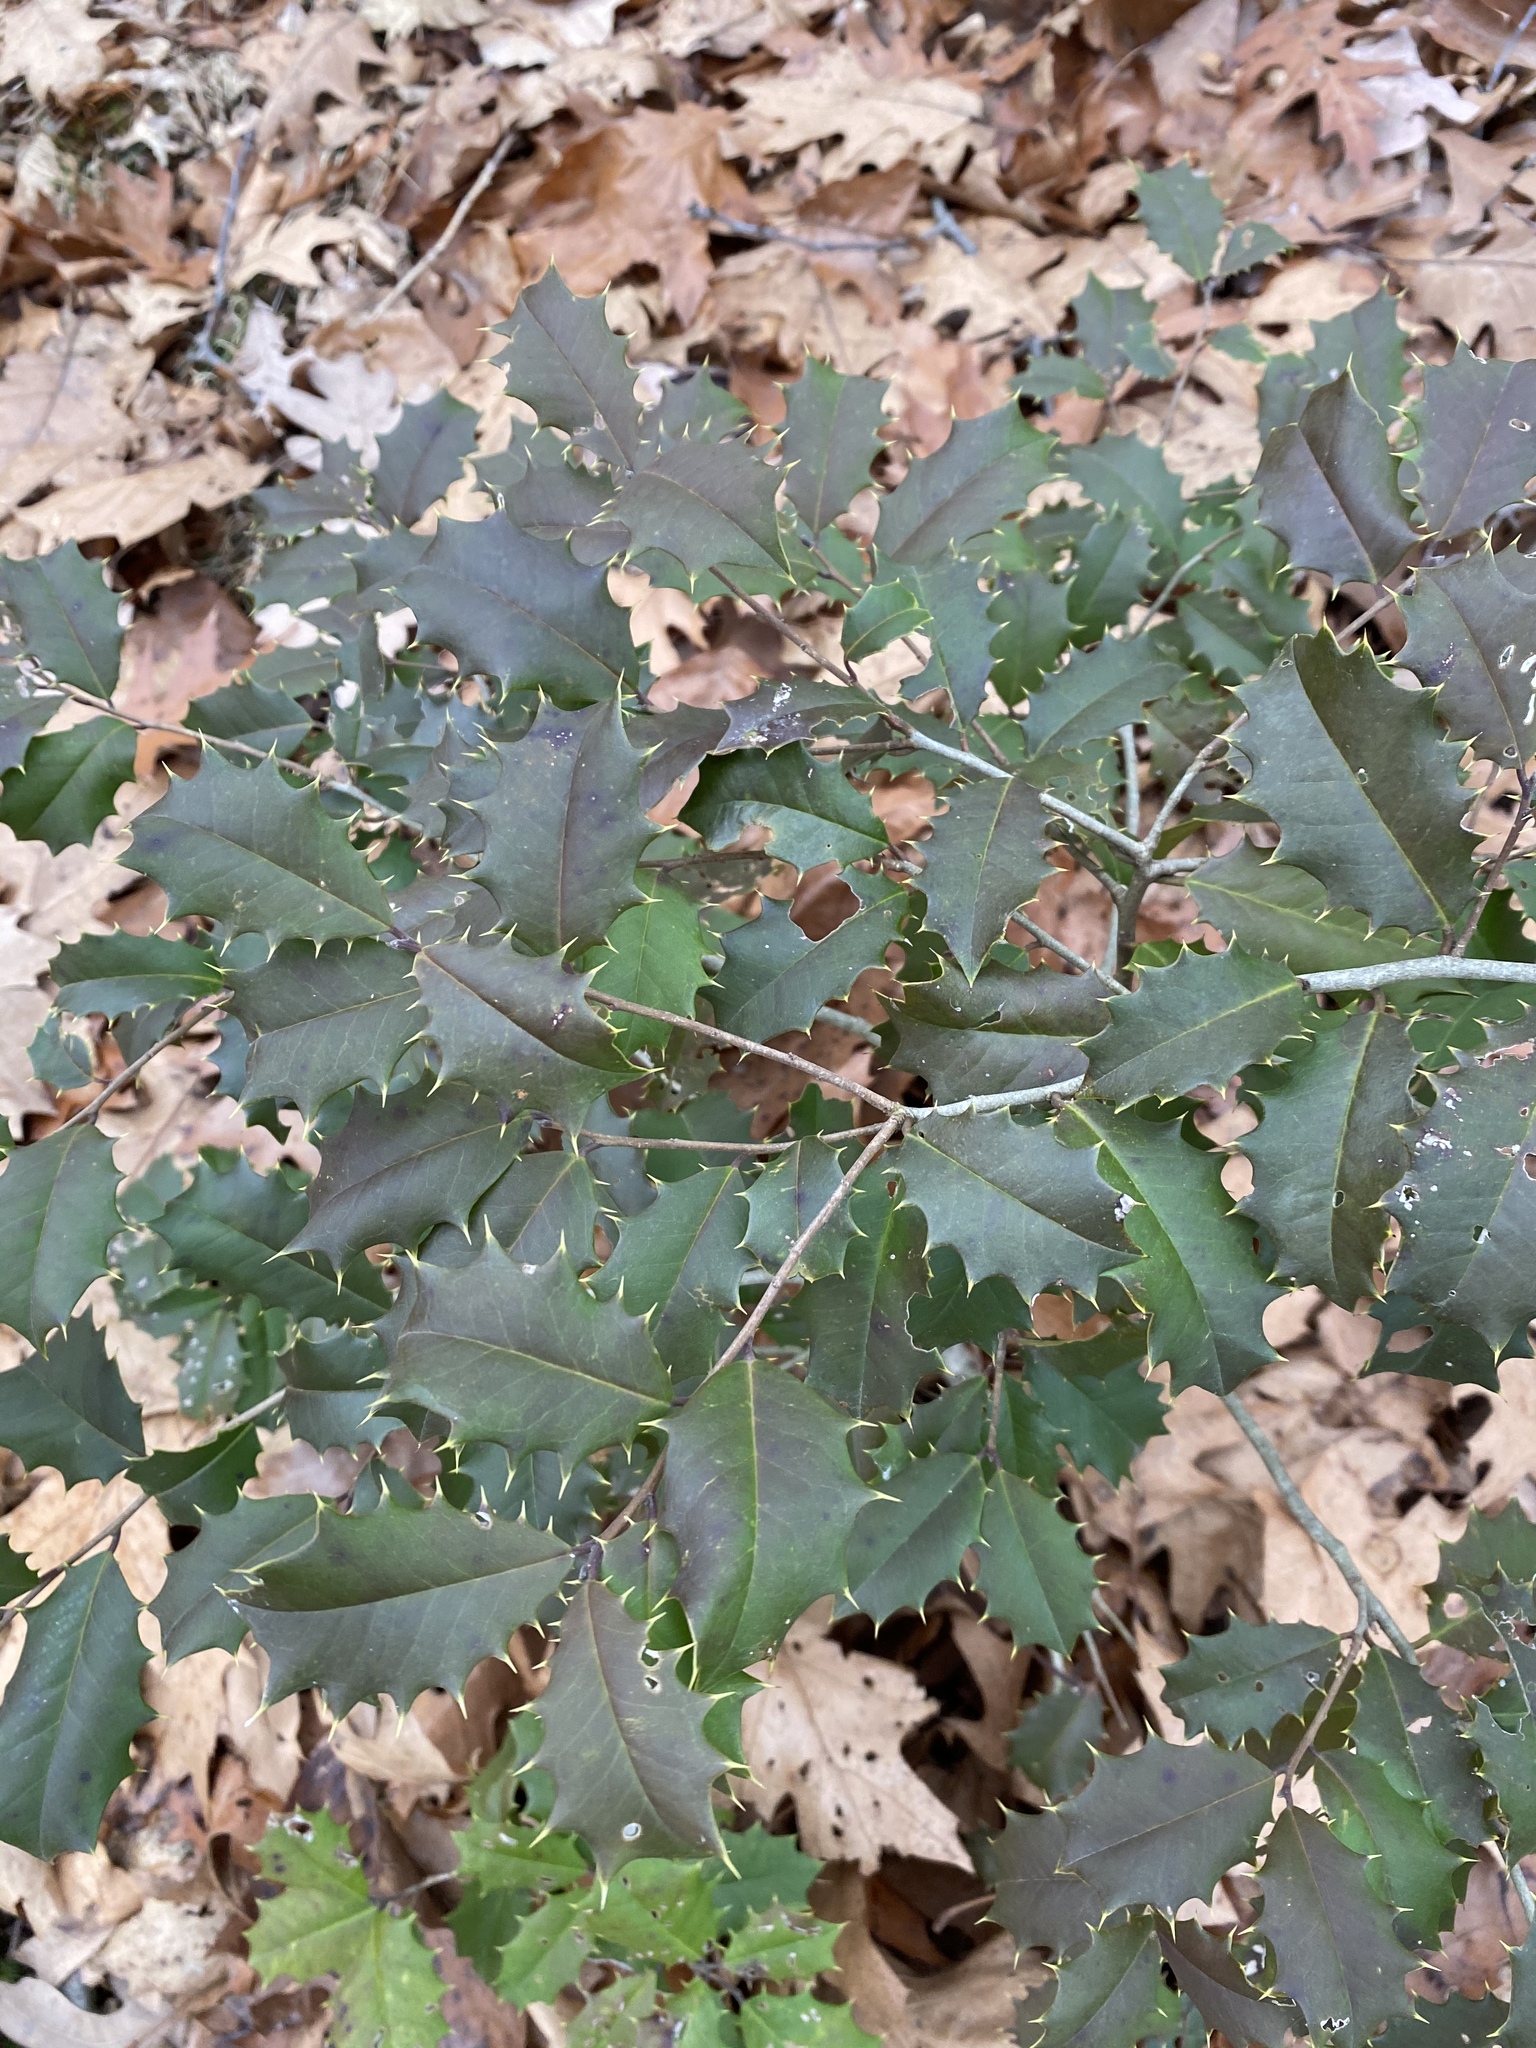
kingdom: Plantae
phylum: Tracheophyta
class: Magnoliopsida
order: Aquifoliales
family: Aquifoliaceae
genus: Ilex
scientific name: Ilex opaca
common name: American holly
